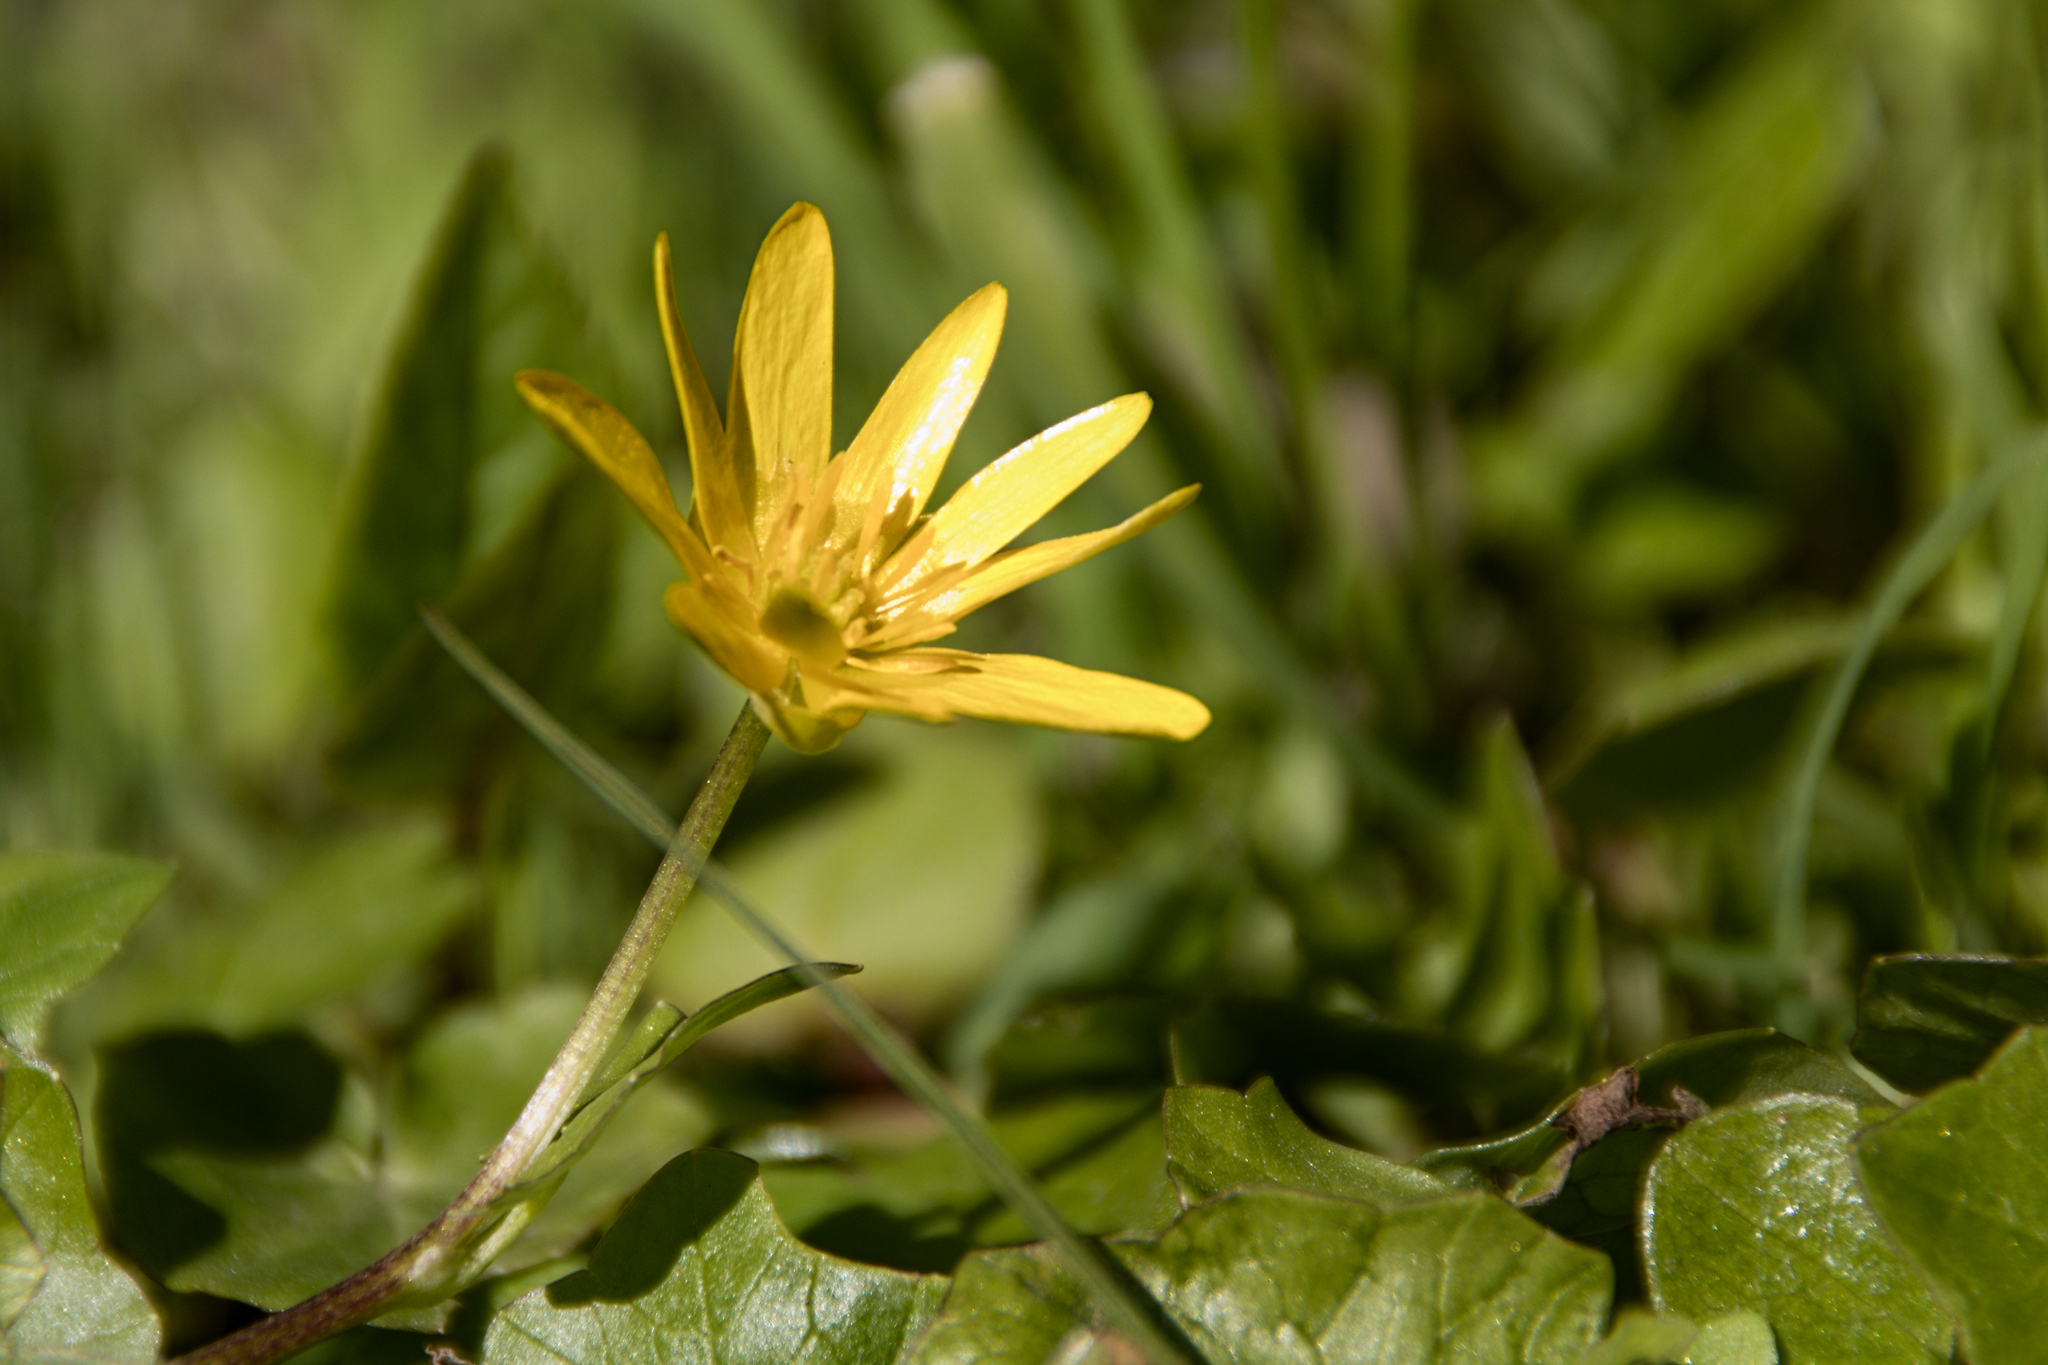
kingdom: Plantae
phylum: Tracheophyta
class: Magnoliopsida
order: Ranunculales
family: Ranunculaceae
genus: Ficaria
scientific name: Ficaria verna
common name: Lesser celandine
